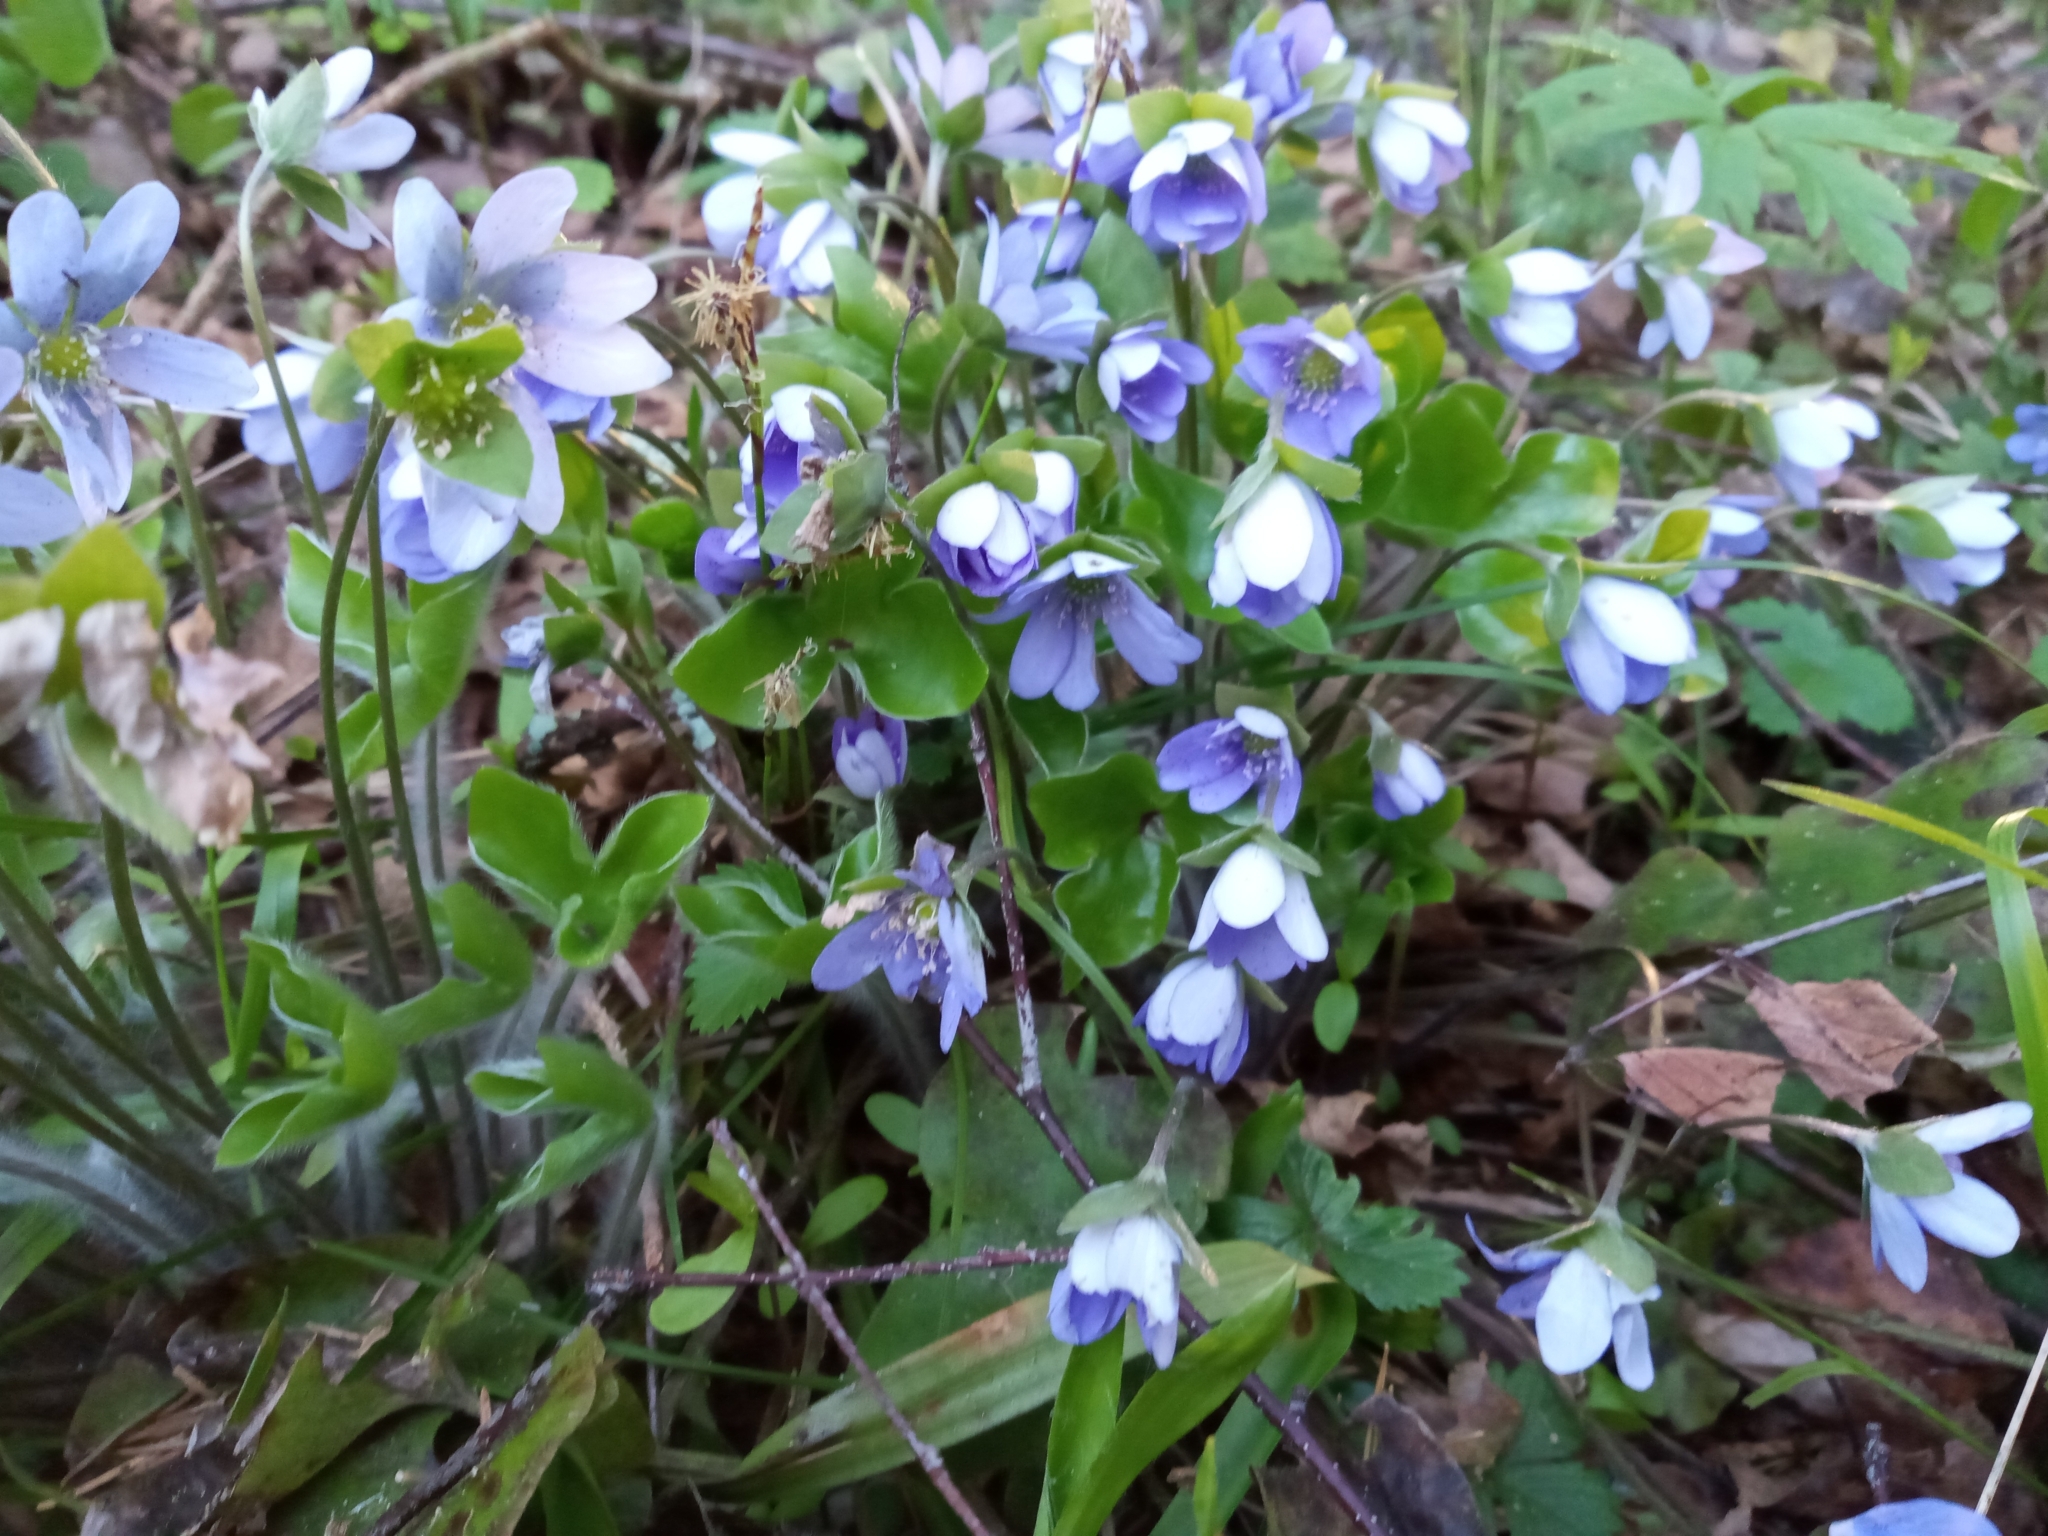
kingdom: Plantae
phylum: Tracheophyta
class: Magnoliopsida
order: Ranunculales
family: Ranunculaceae
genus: Hepatica
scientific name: Hepatica nobilis
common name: Liverleaf
